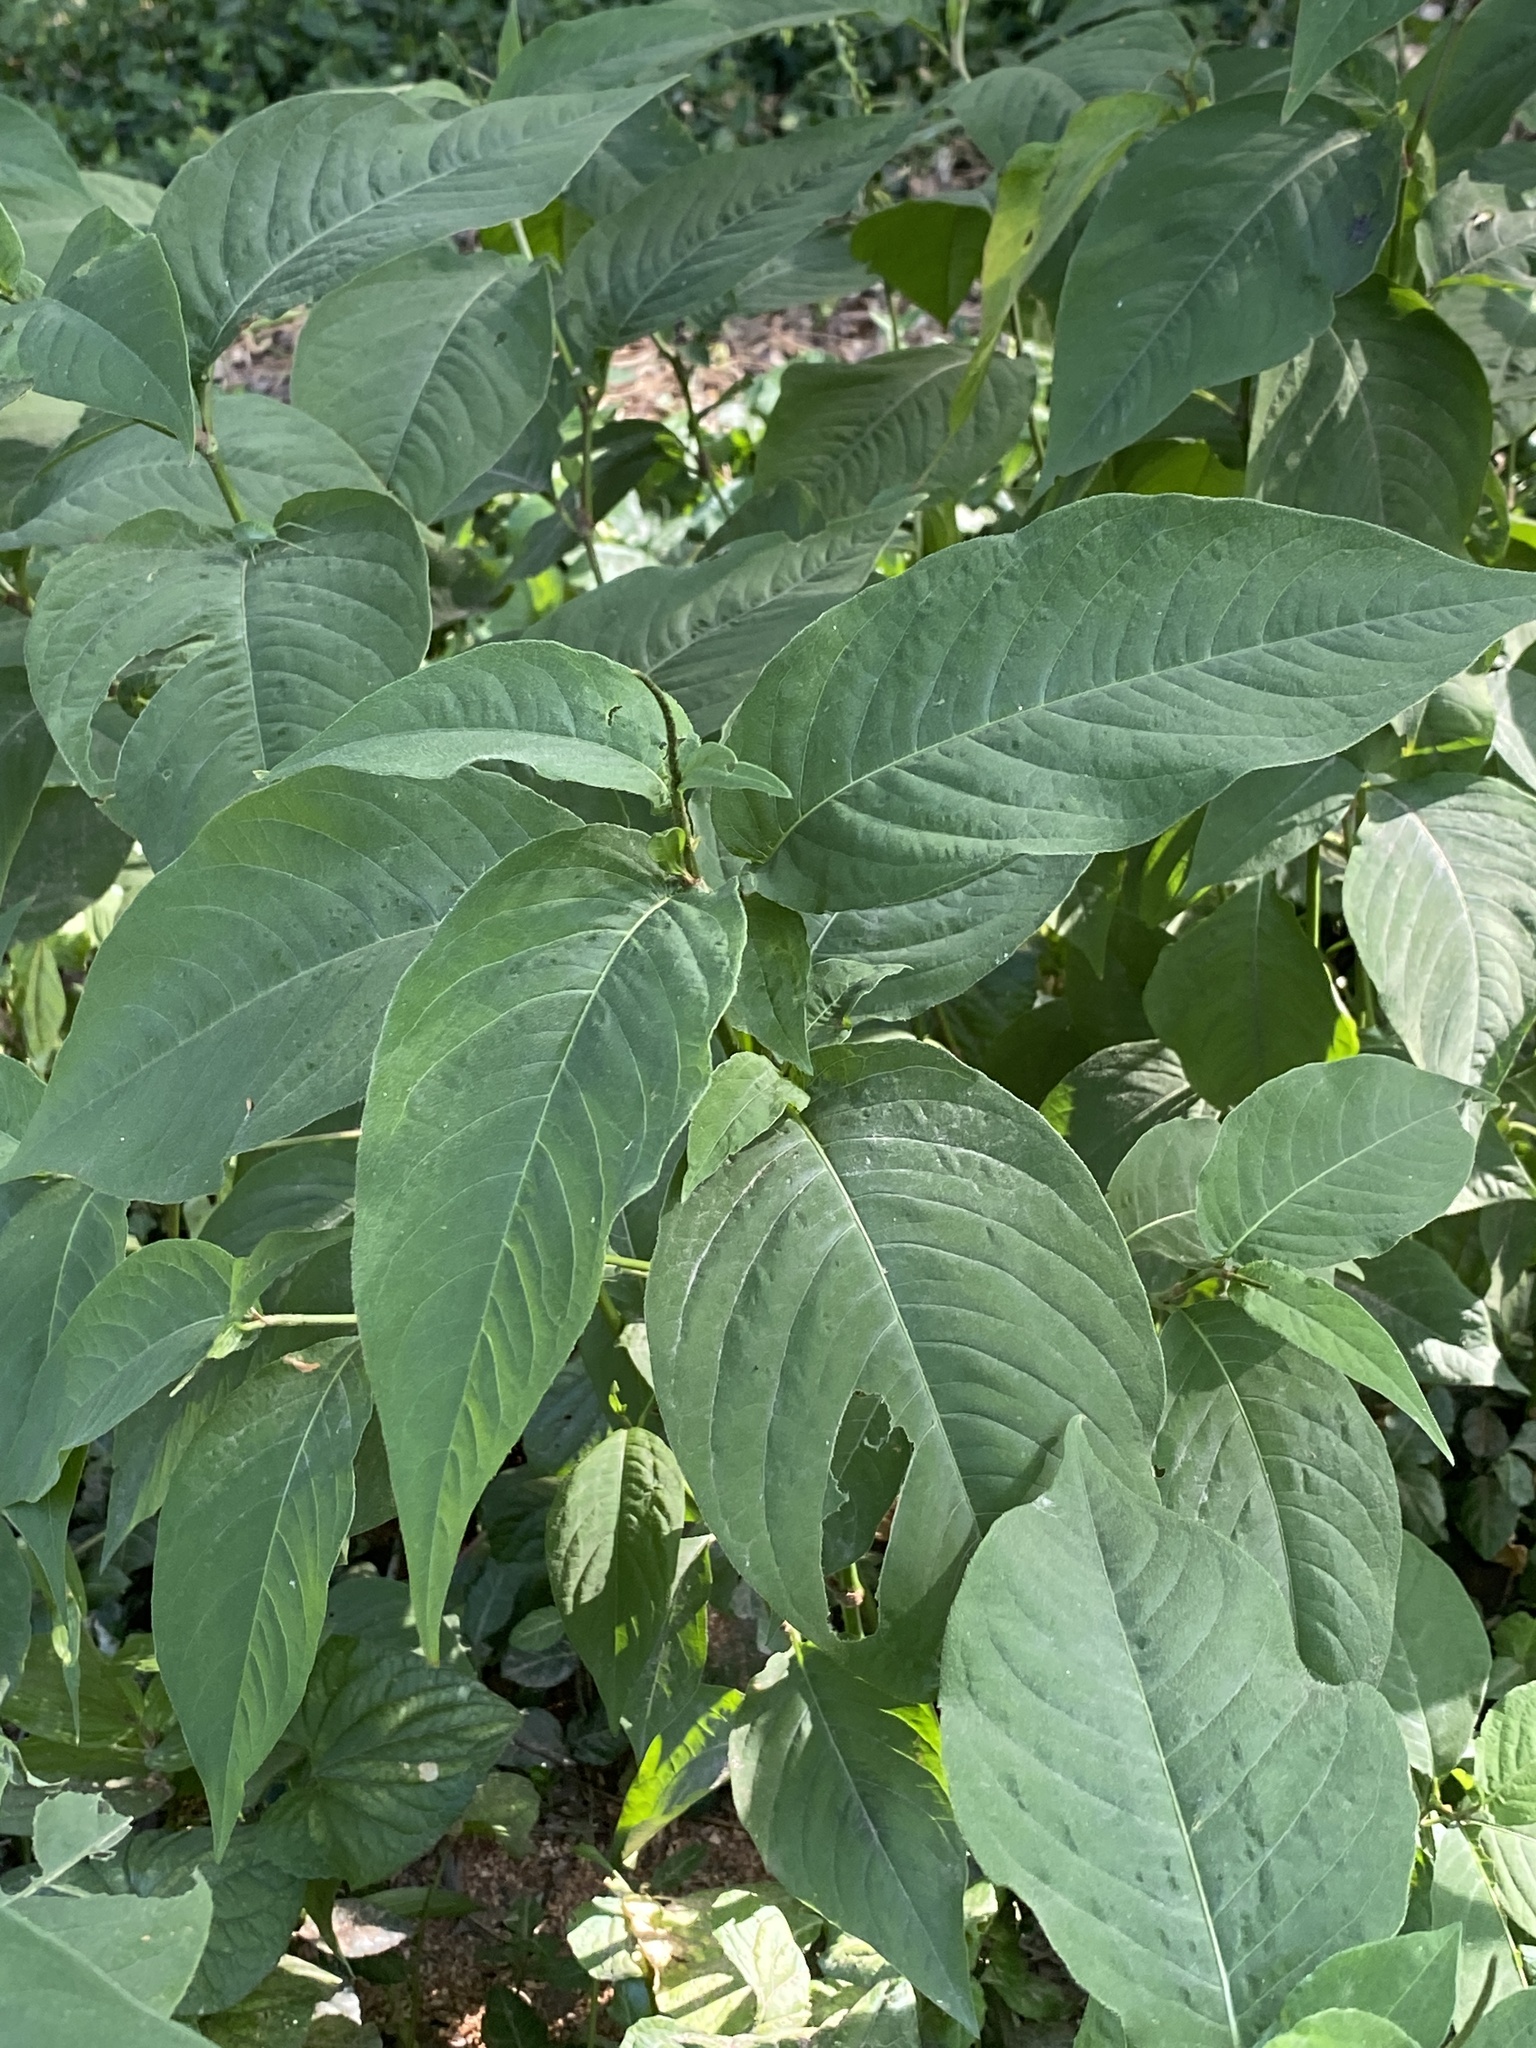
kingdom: Plantae
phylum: Tracheophyta
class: Magnoliopsida
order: Caryophyllales
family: Polygonaceae
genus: Persicaria
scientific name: Persicaria virginiana
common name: Jumpseed
